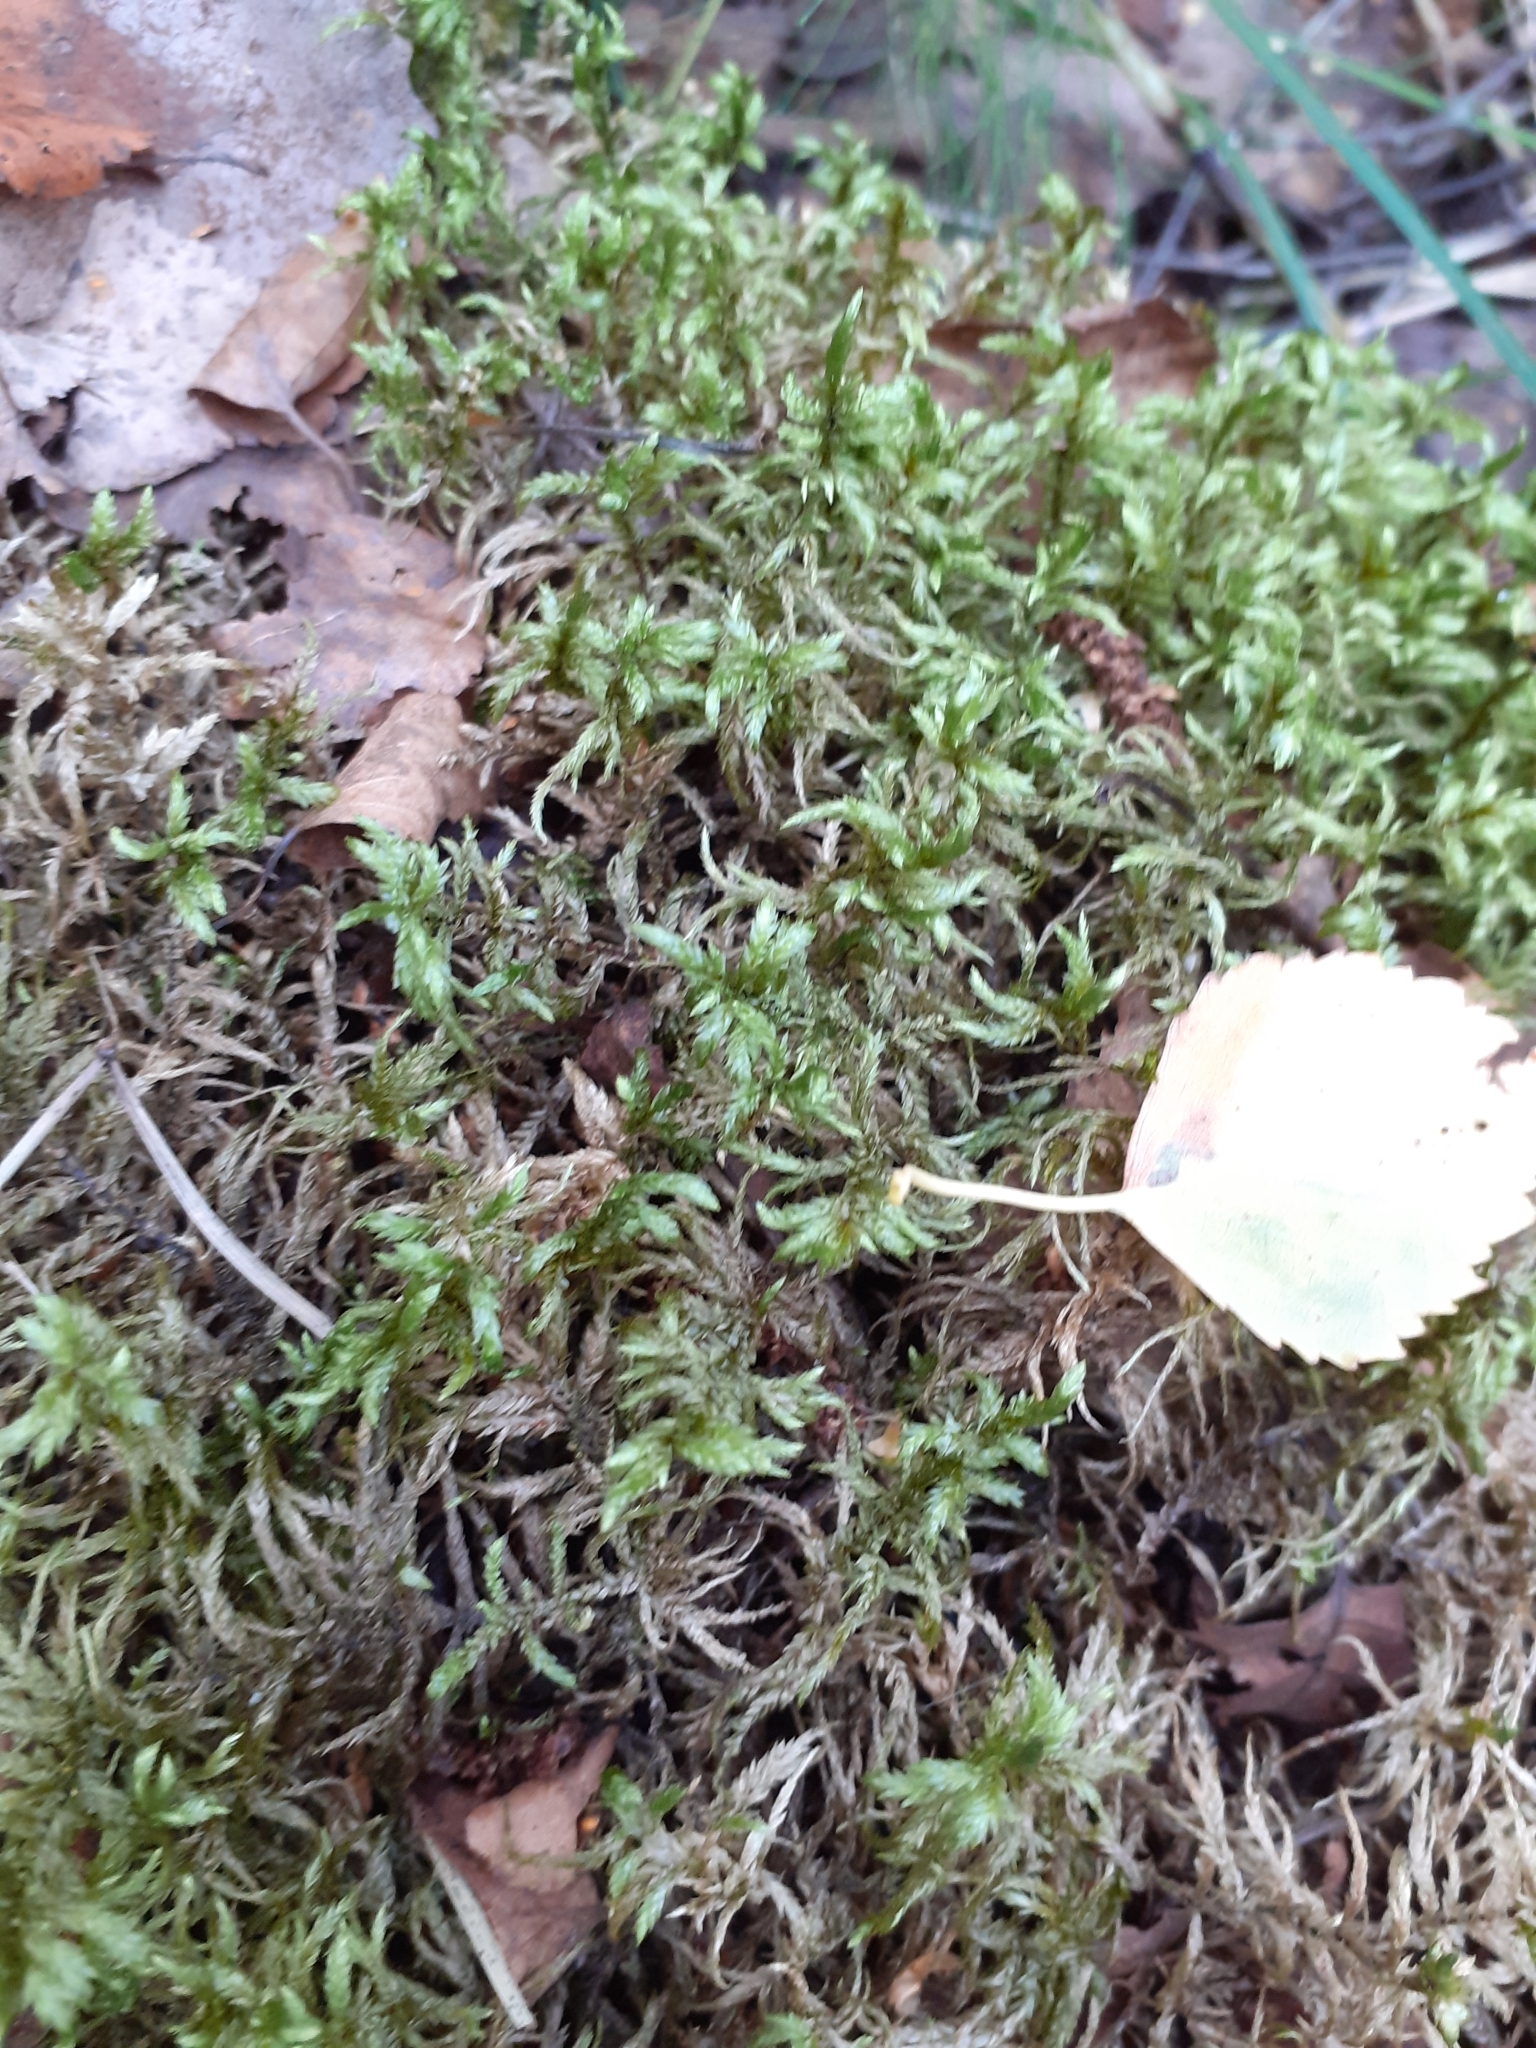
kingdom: Plantae
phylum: Bryophyta
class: Bryopsida
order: Hypnales
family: Hylocomiaceae
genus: Pleurozium
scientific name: Pleurozium schreberi
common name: Red-stemmed feather moss
